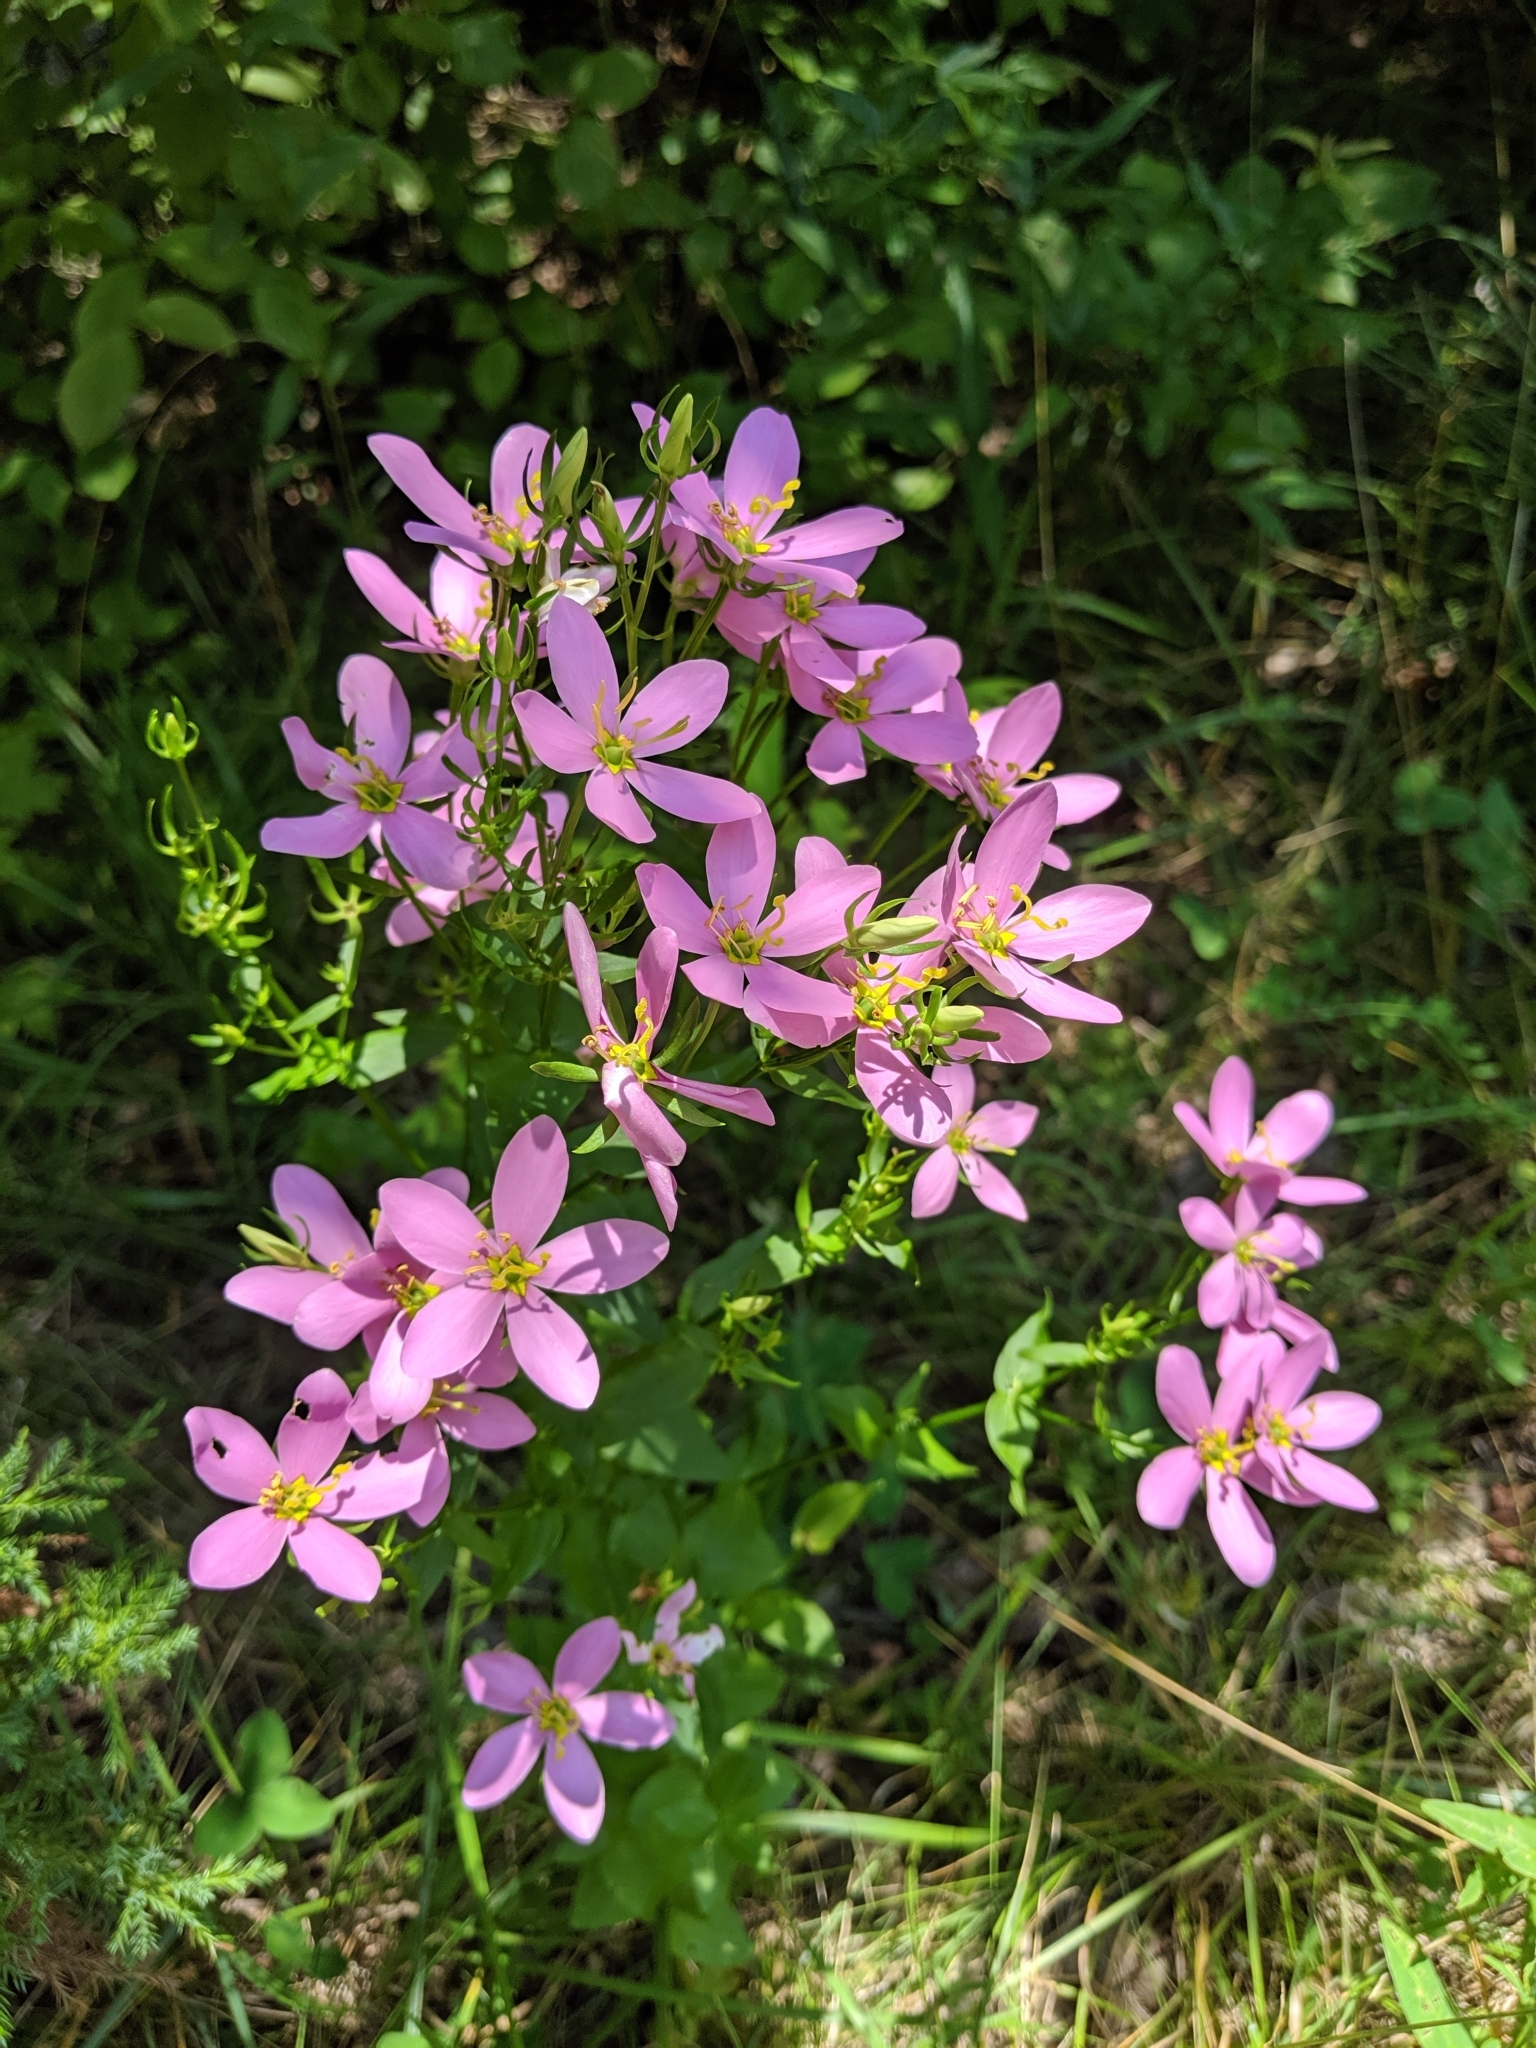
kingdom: Plantae
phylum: Tracheophyta
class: Magnoliopsida
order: Gentianales
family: Gentianaceae
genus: Sabatia
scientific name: Sabatia angularis
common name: Rose-pink
